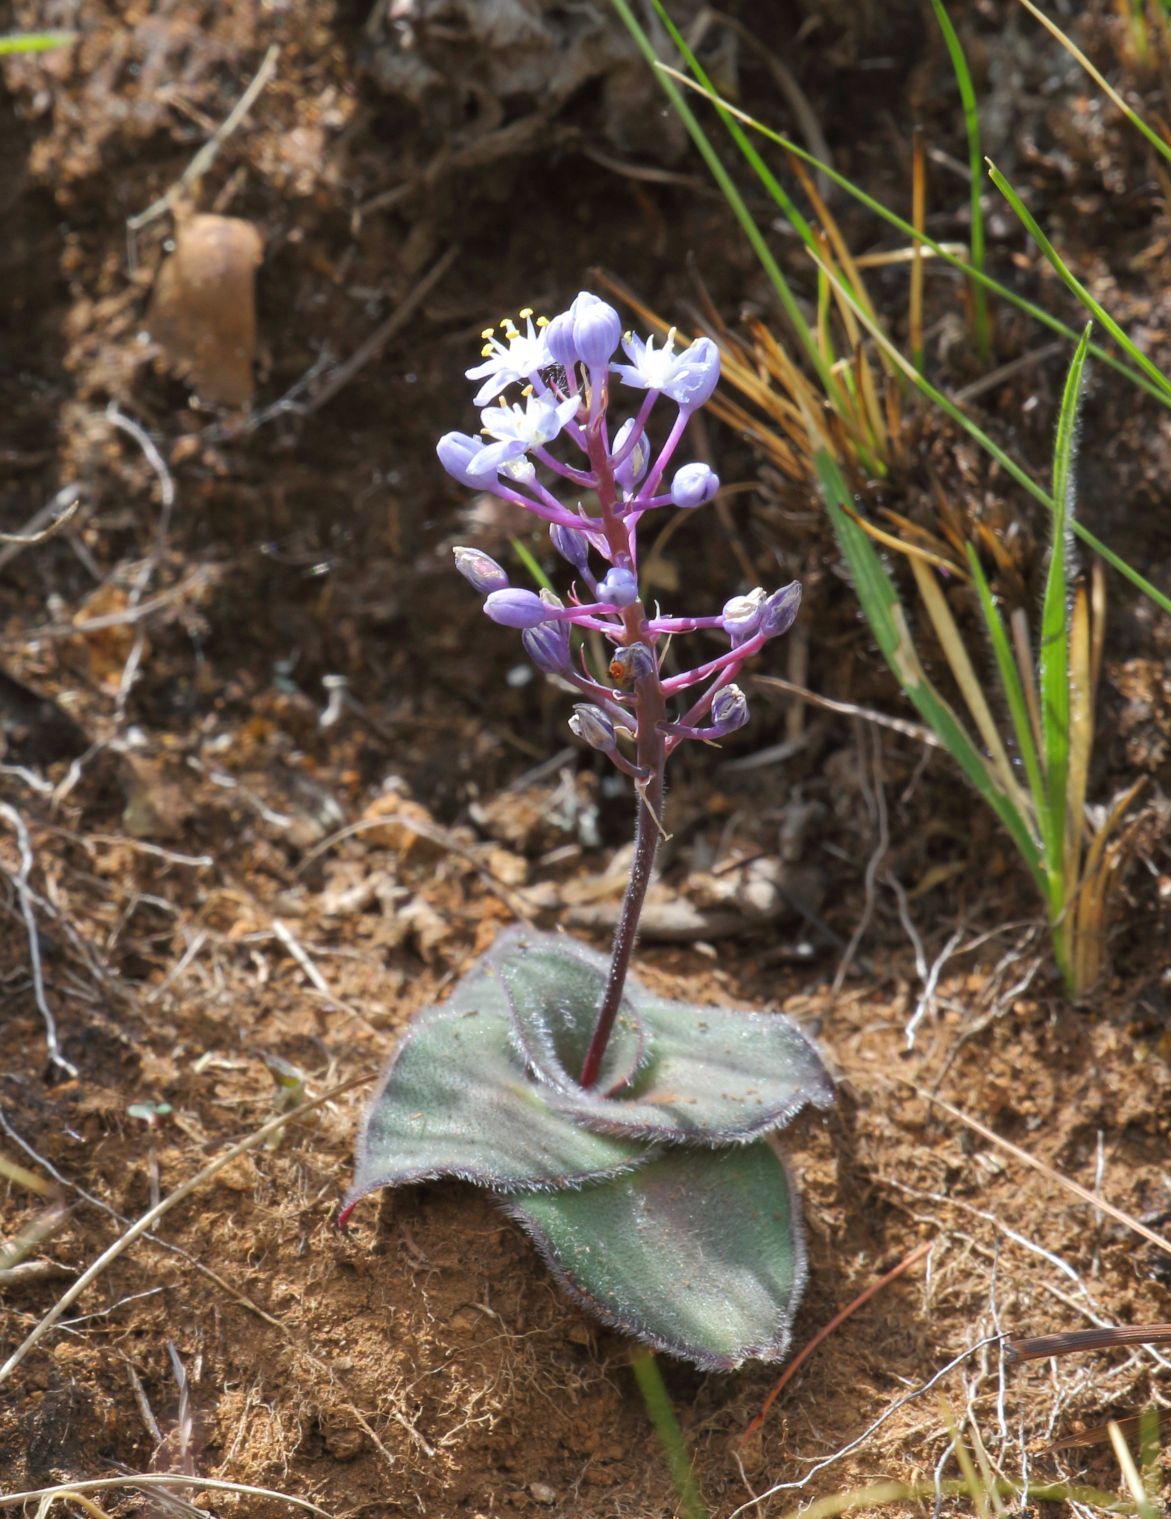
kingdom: Plantae
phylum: Tracheophyta
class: Liliopsida
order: Asparagales
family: Asparagaceae
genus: Merwilla
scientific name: Merwilla dracomontana
